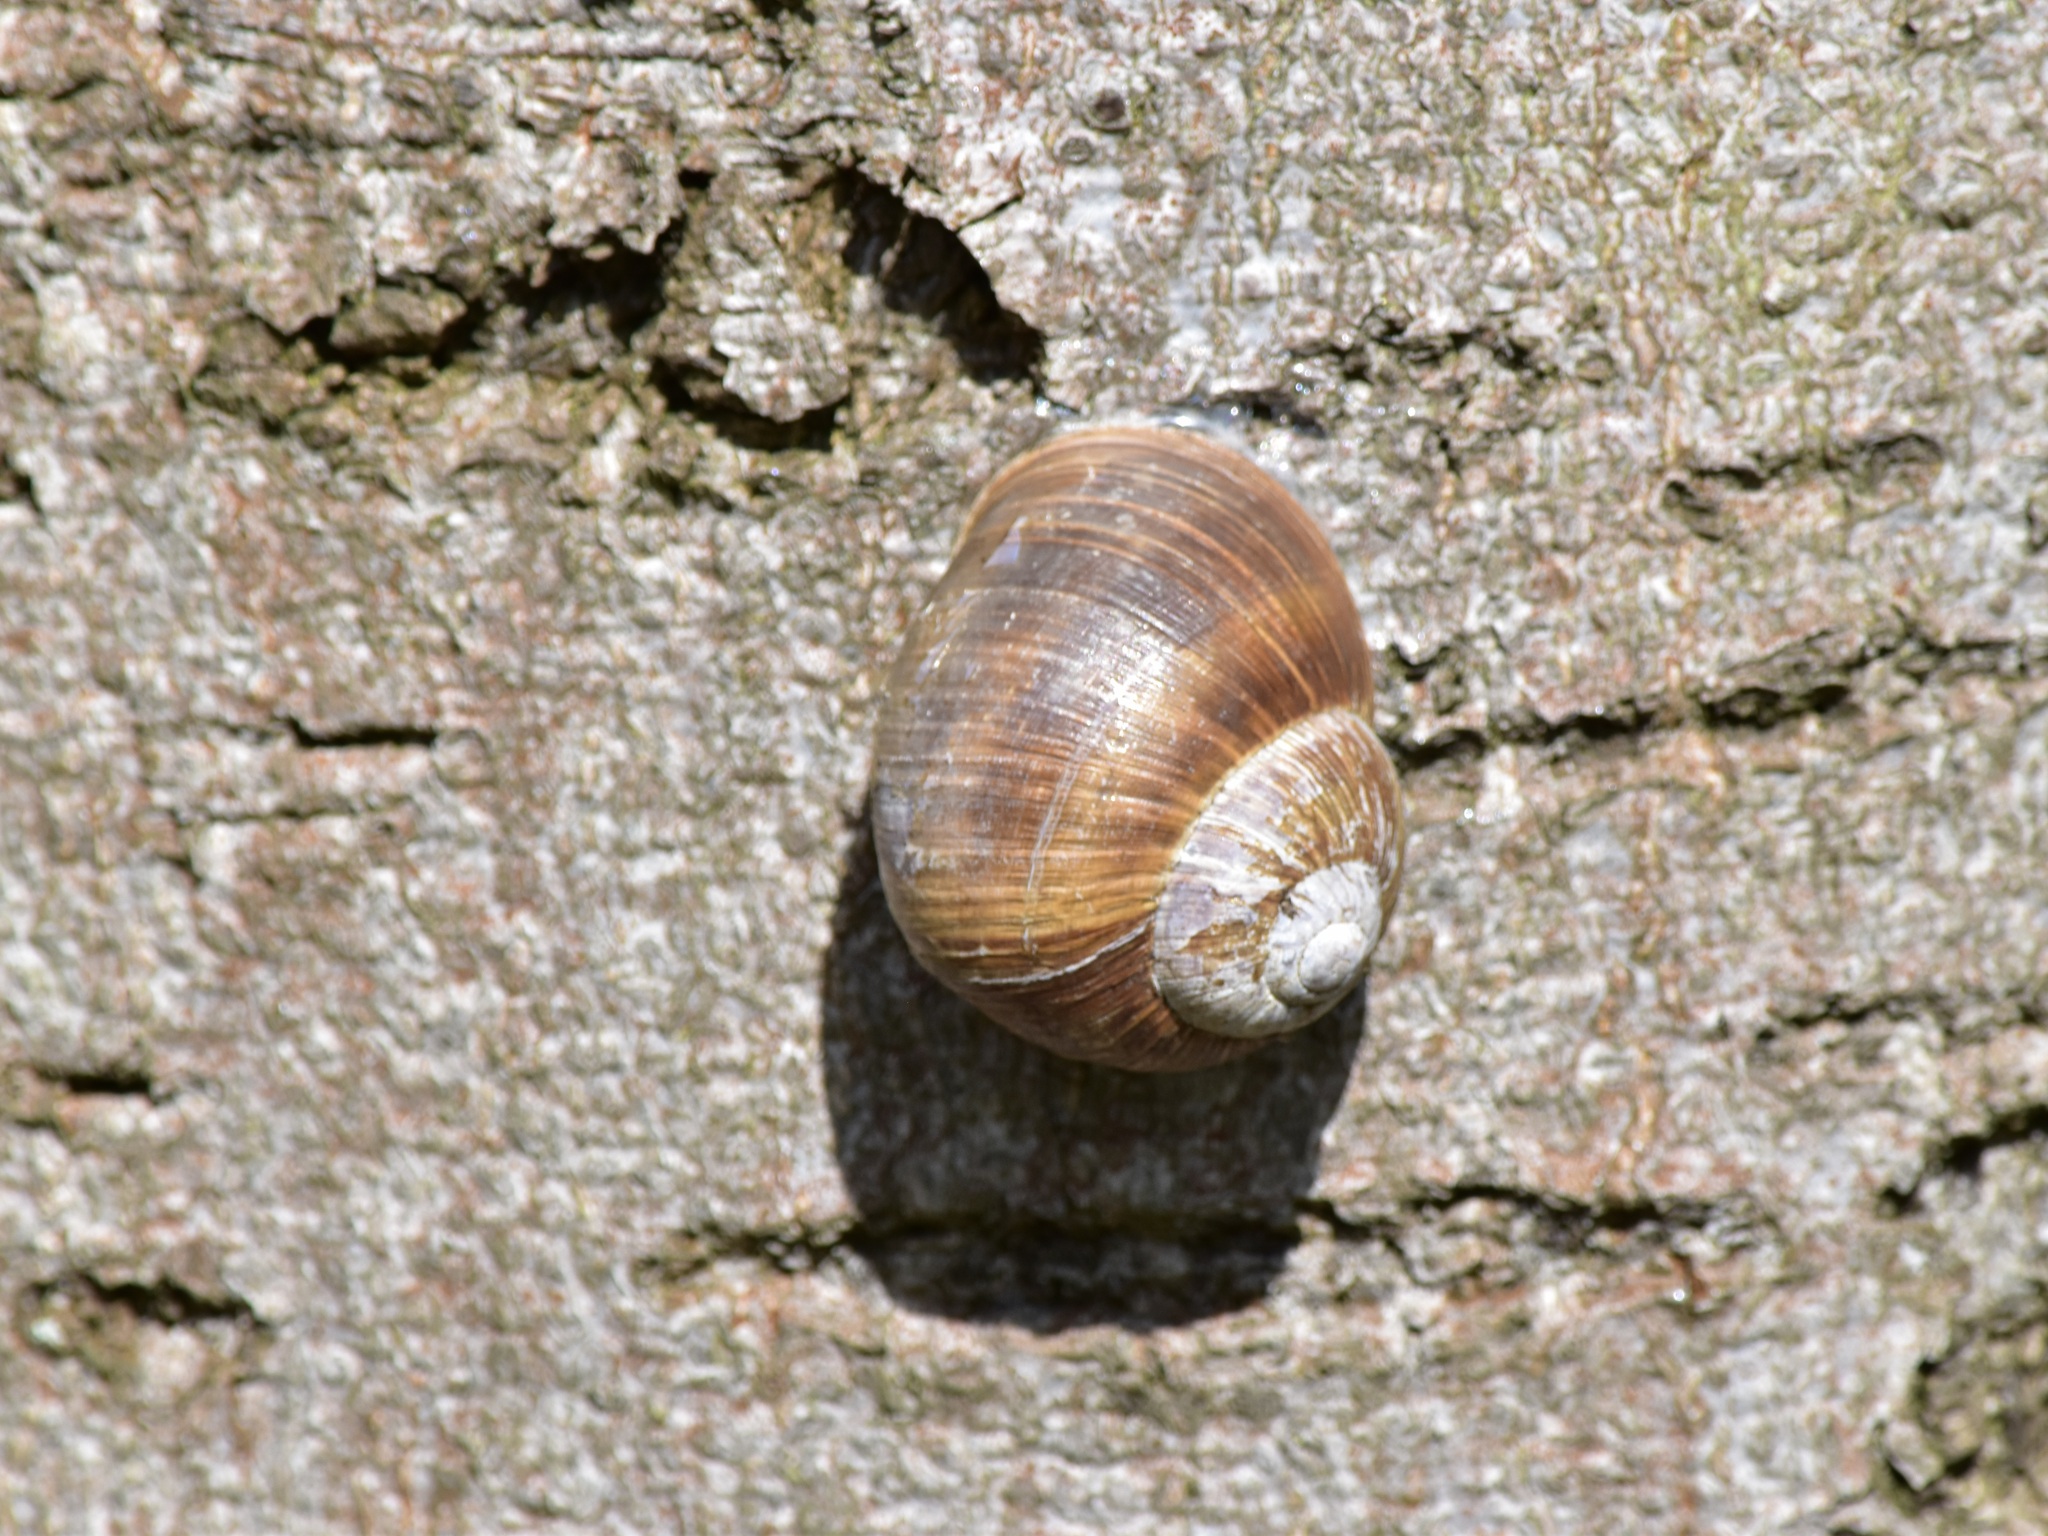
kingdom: Animalia
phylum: Mollusca
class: Gastropoda
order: Stylommatophora
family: Helicidae
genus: Helix
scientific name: Helix pomatia
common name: Roman snail
